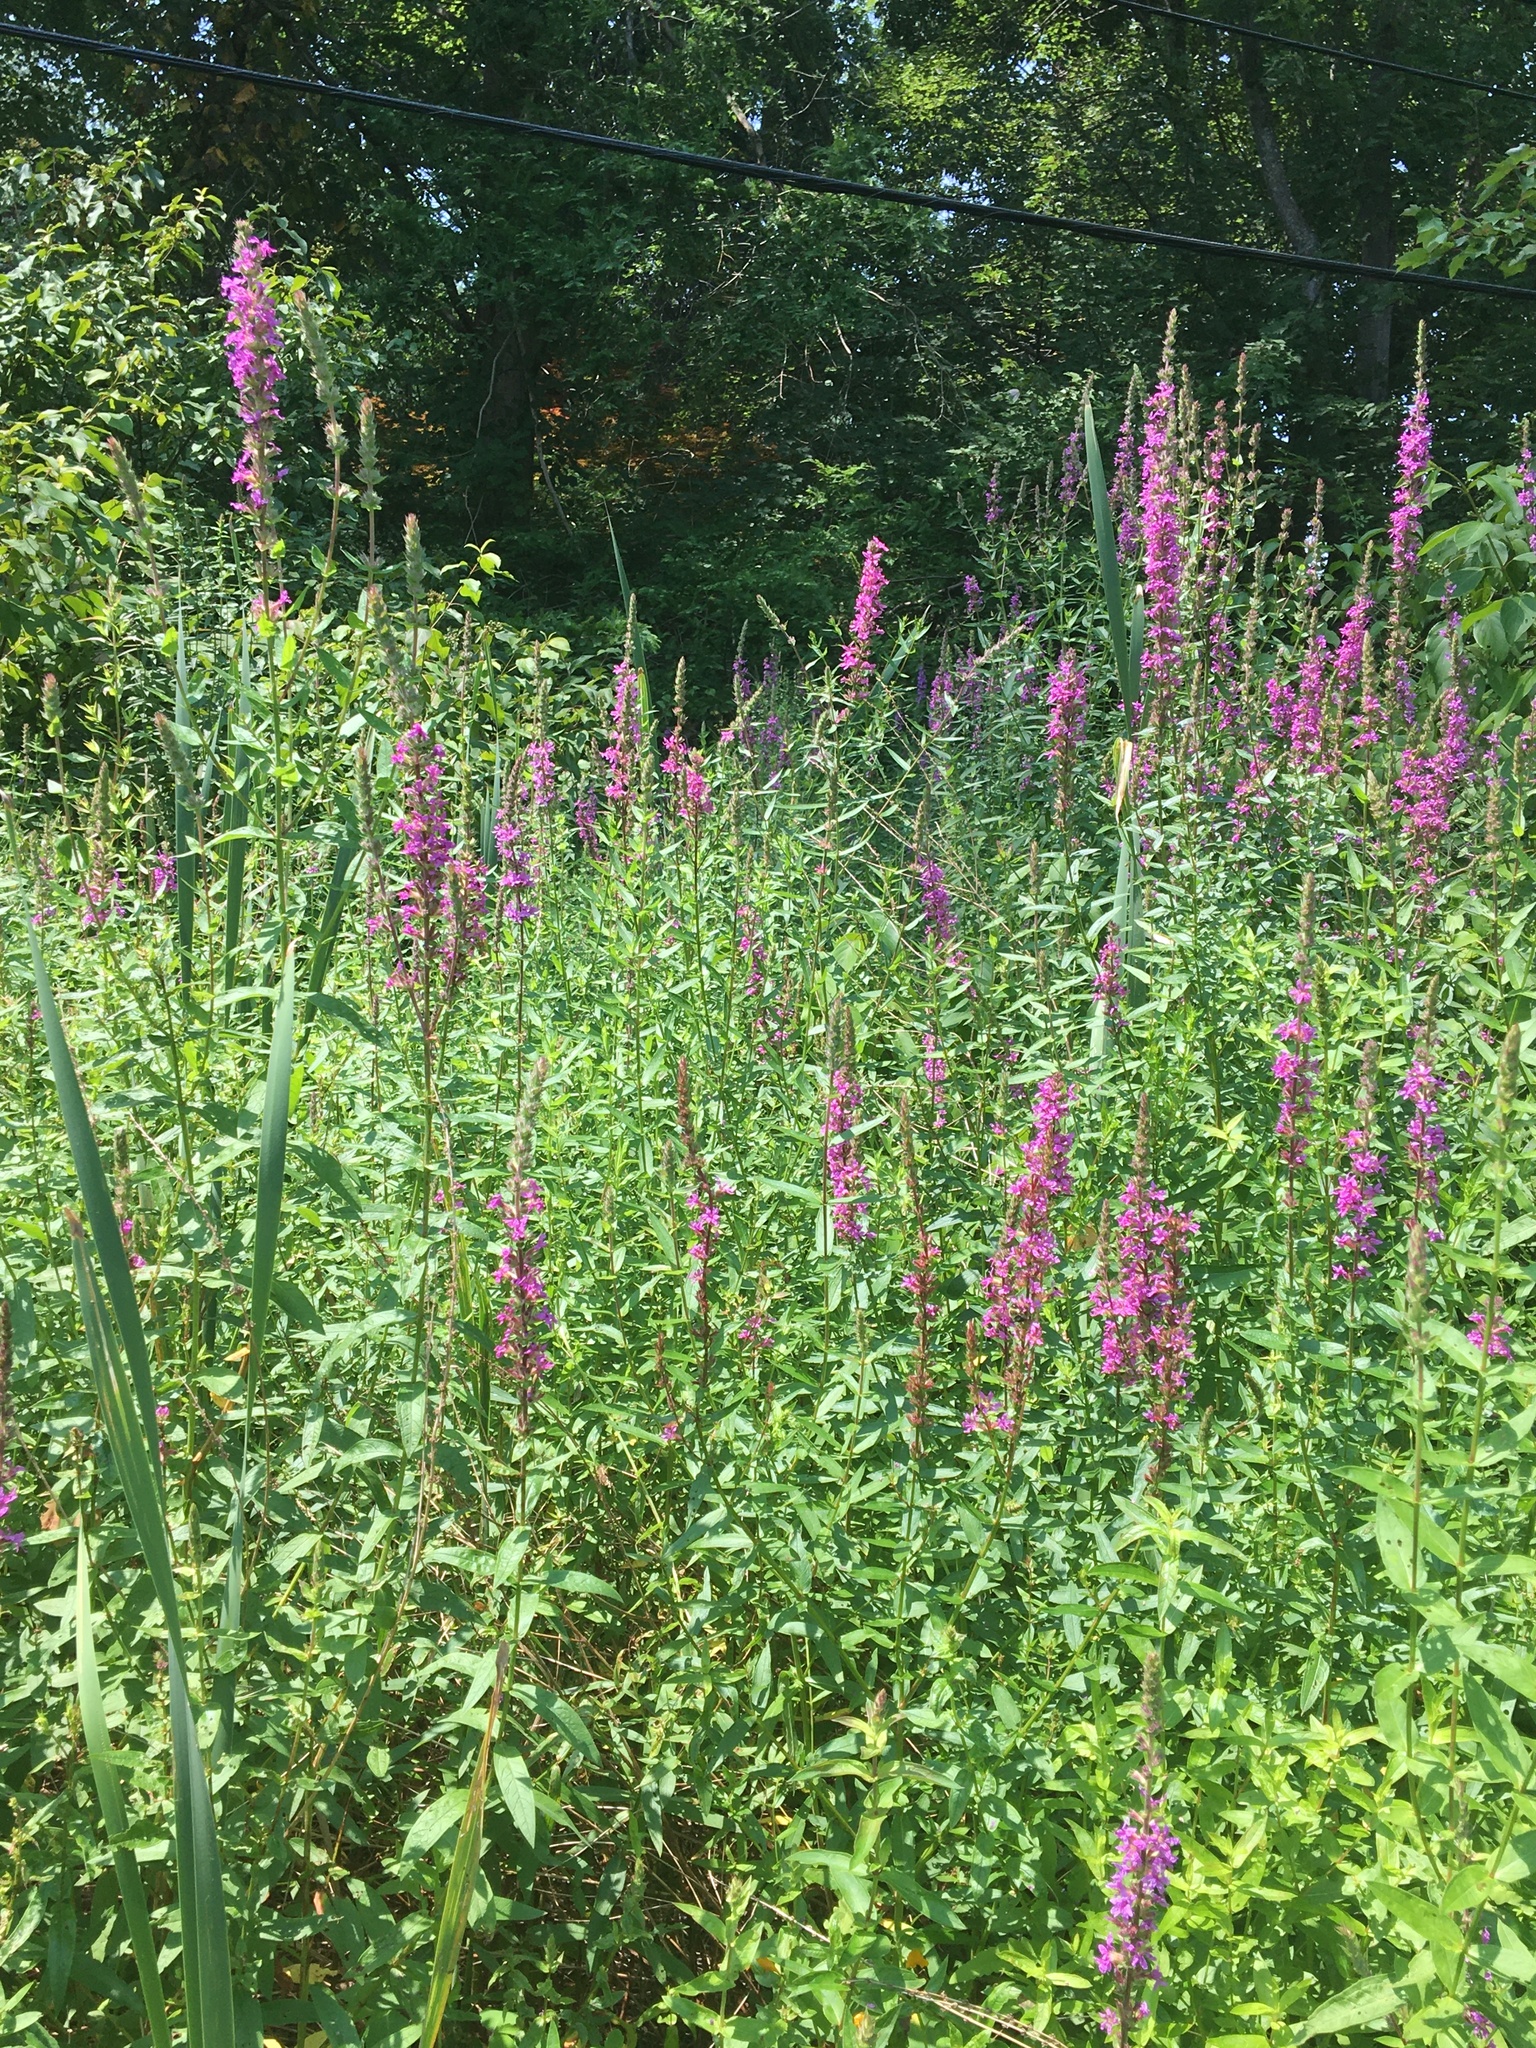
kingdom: Plantae
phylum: Tracheophyta
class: Magnoliopsida
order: Myrtales
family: Lythraceae
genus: Lythrum
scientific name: Lythrum salicaria
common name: Purple loosestrife
